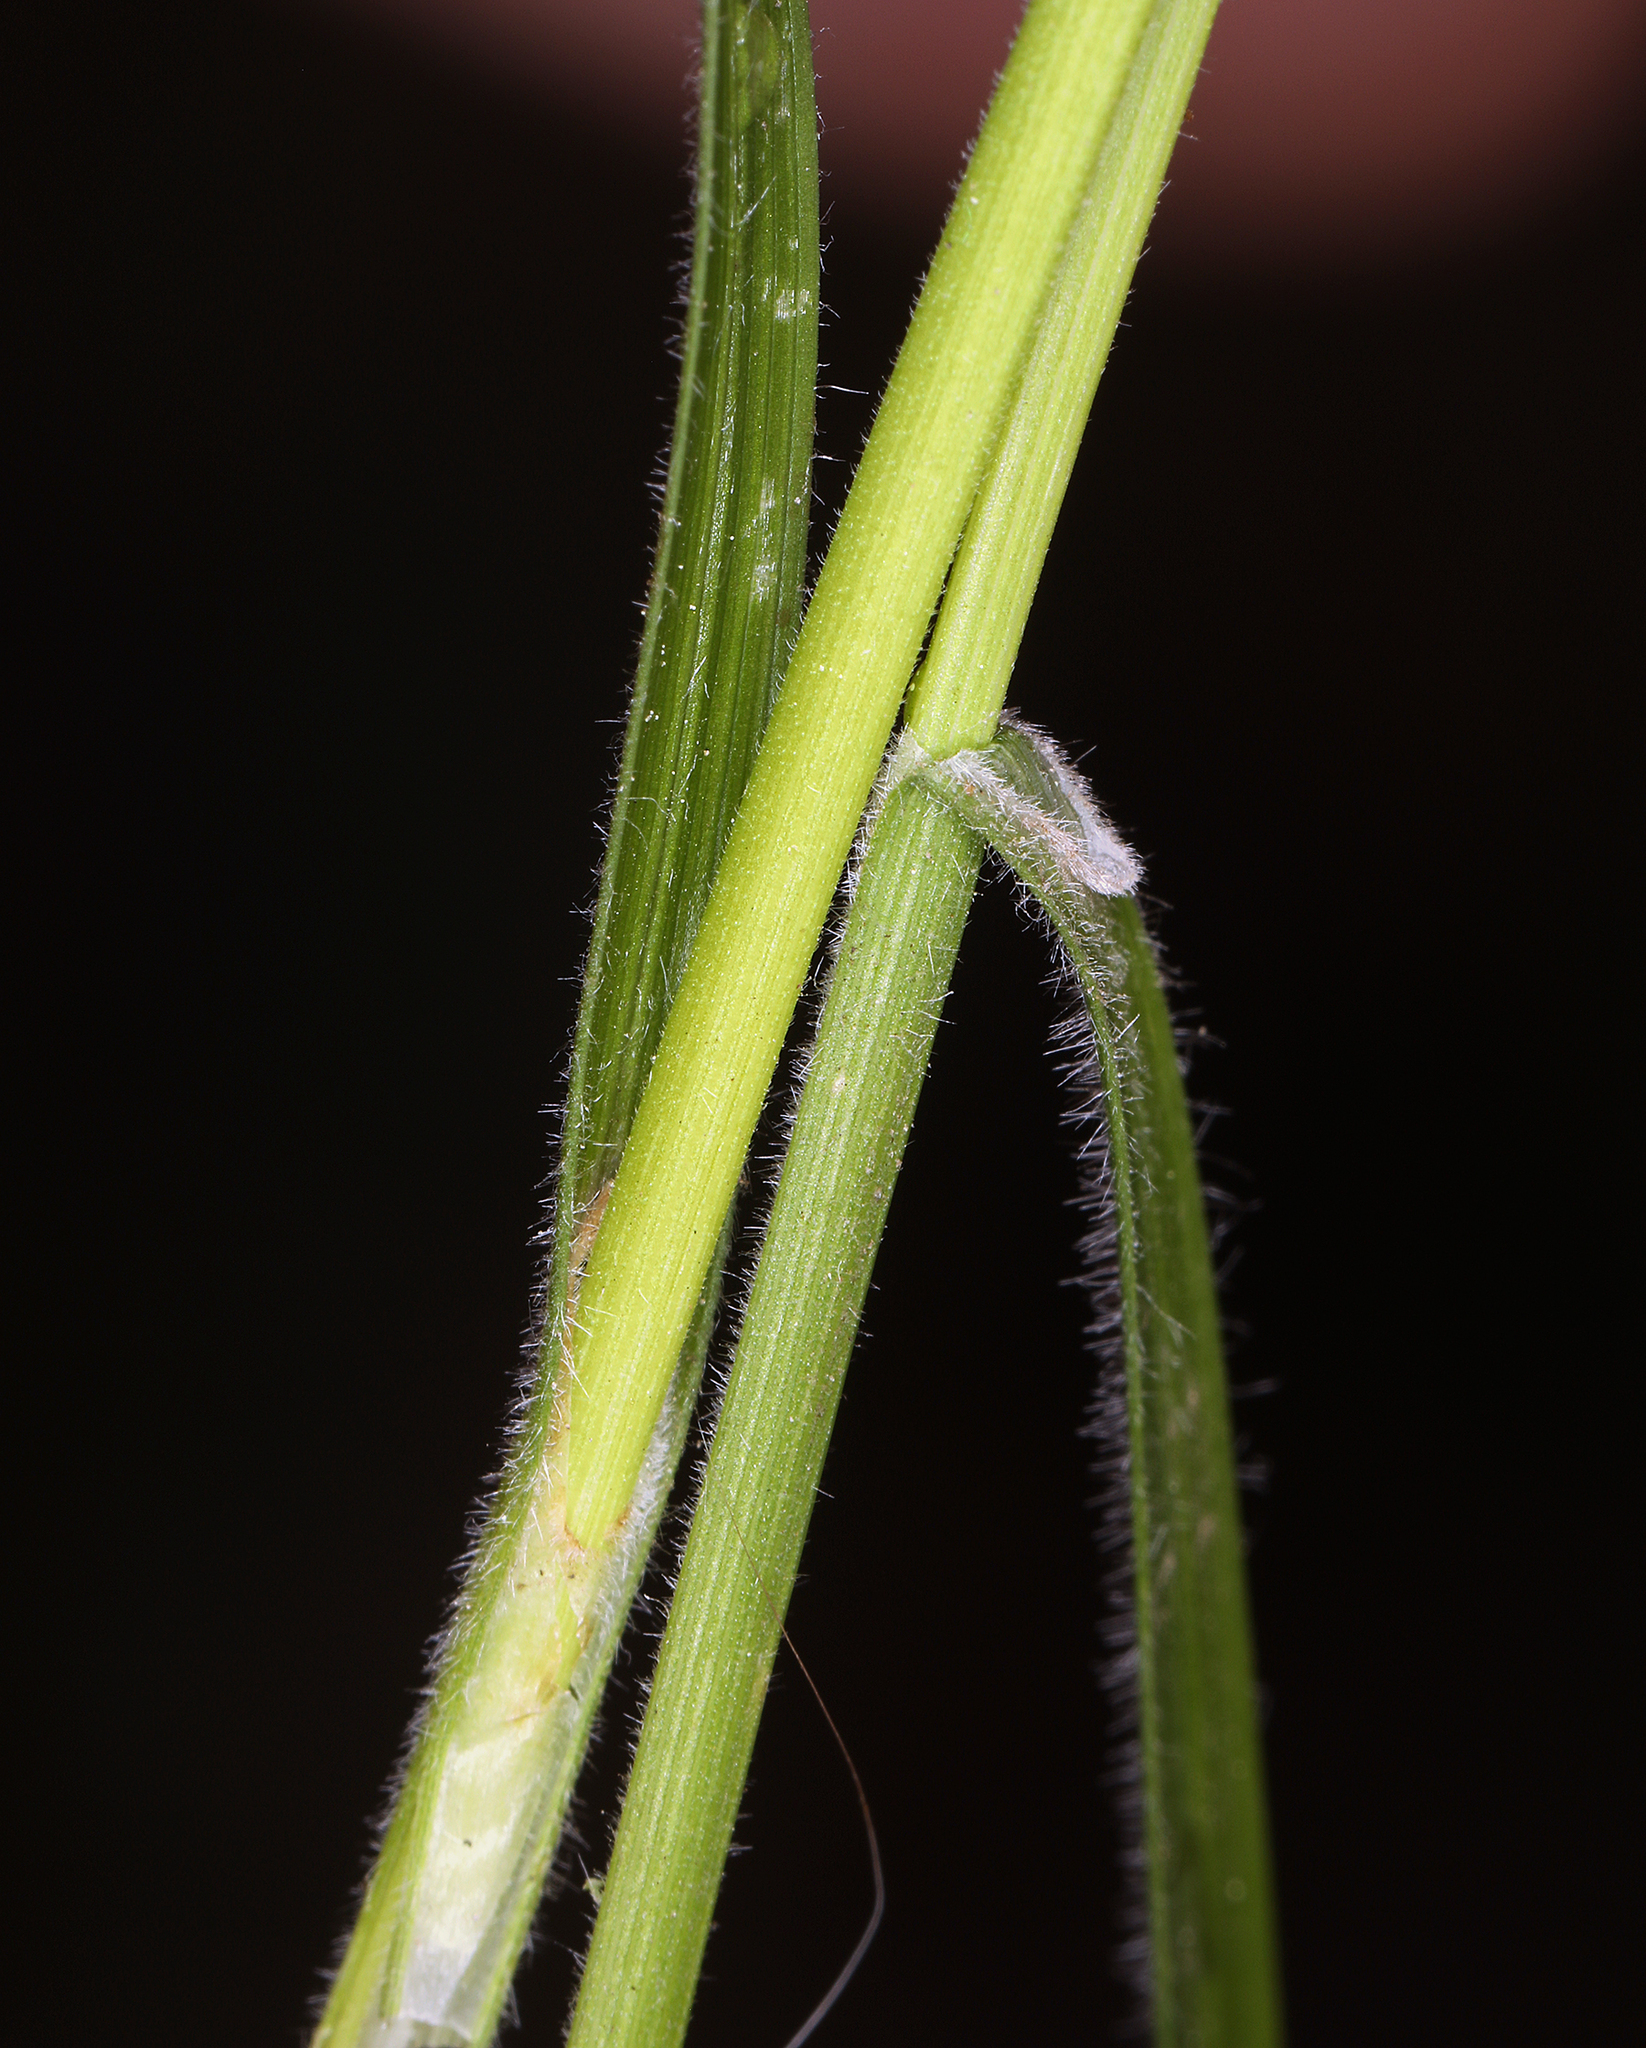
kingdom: Plantae
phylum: Tracheophyta
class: Liliopsida
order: Poales
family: Cyperaceae
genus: Carex
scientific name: Carex whitneyi
